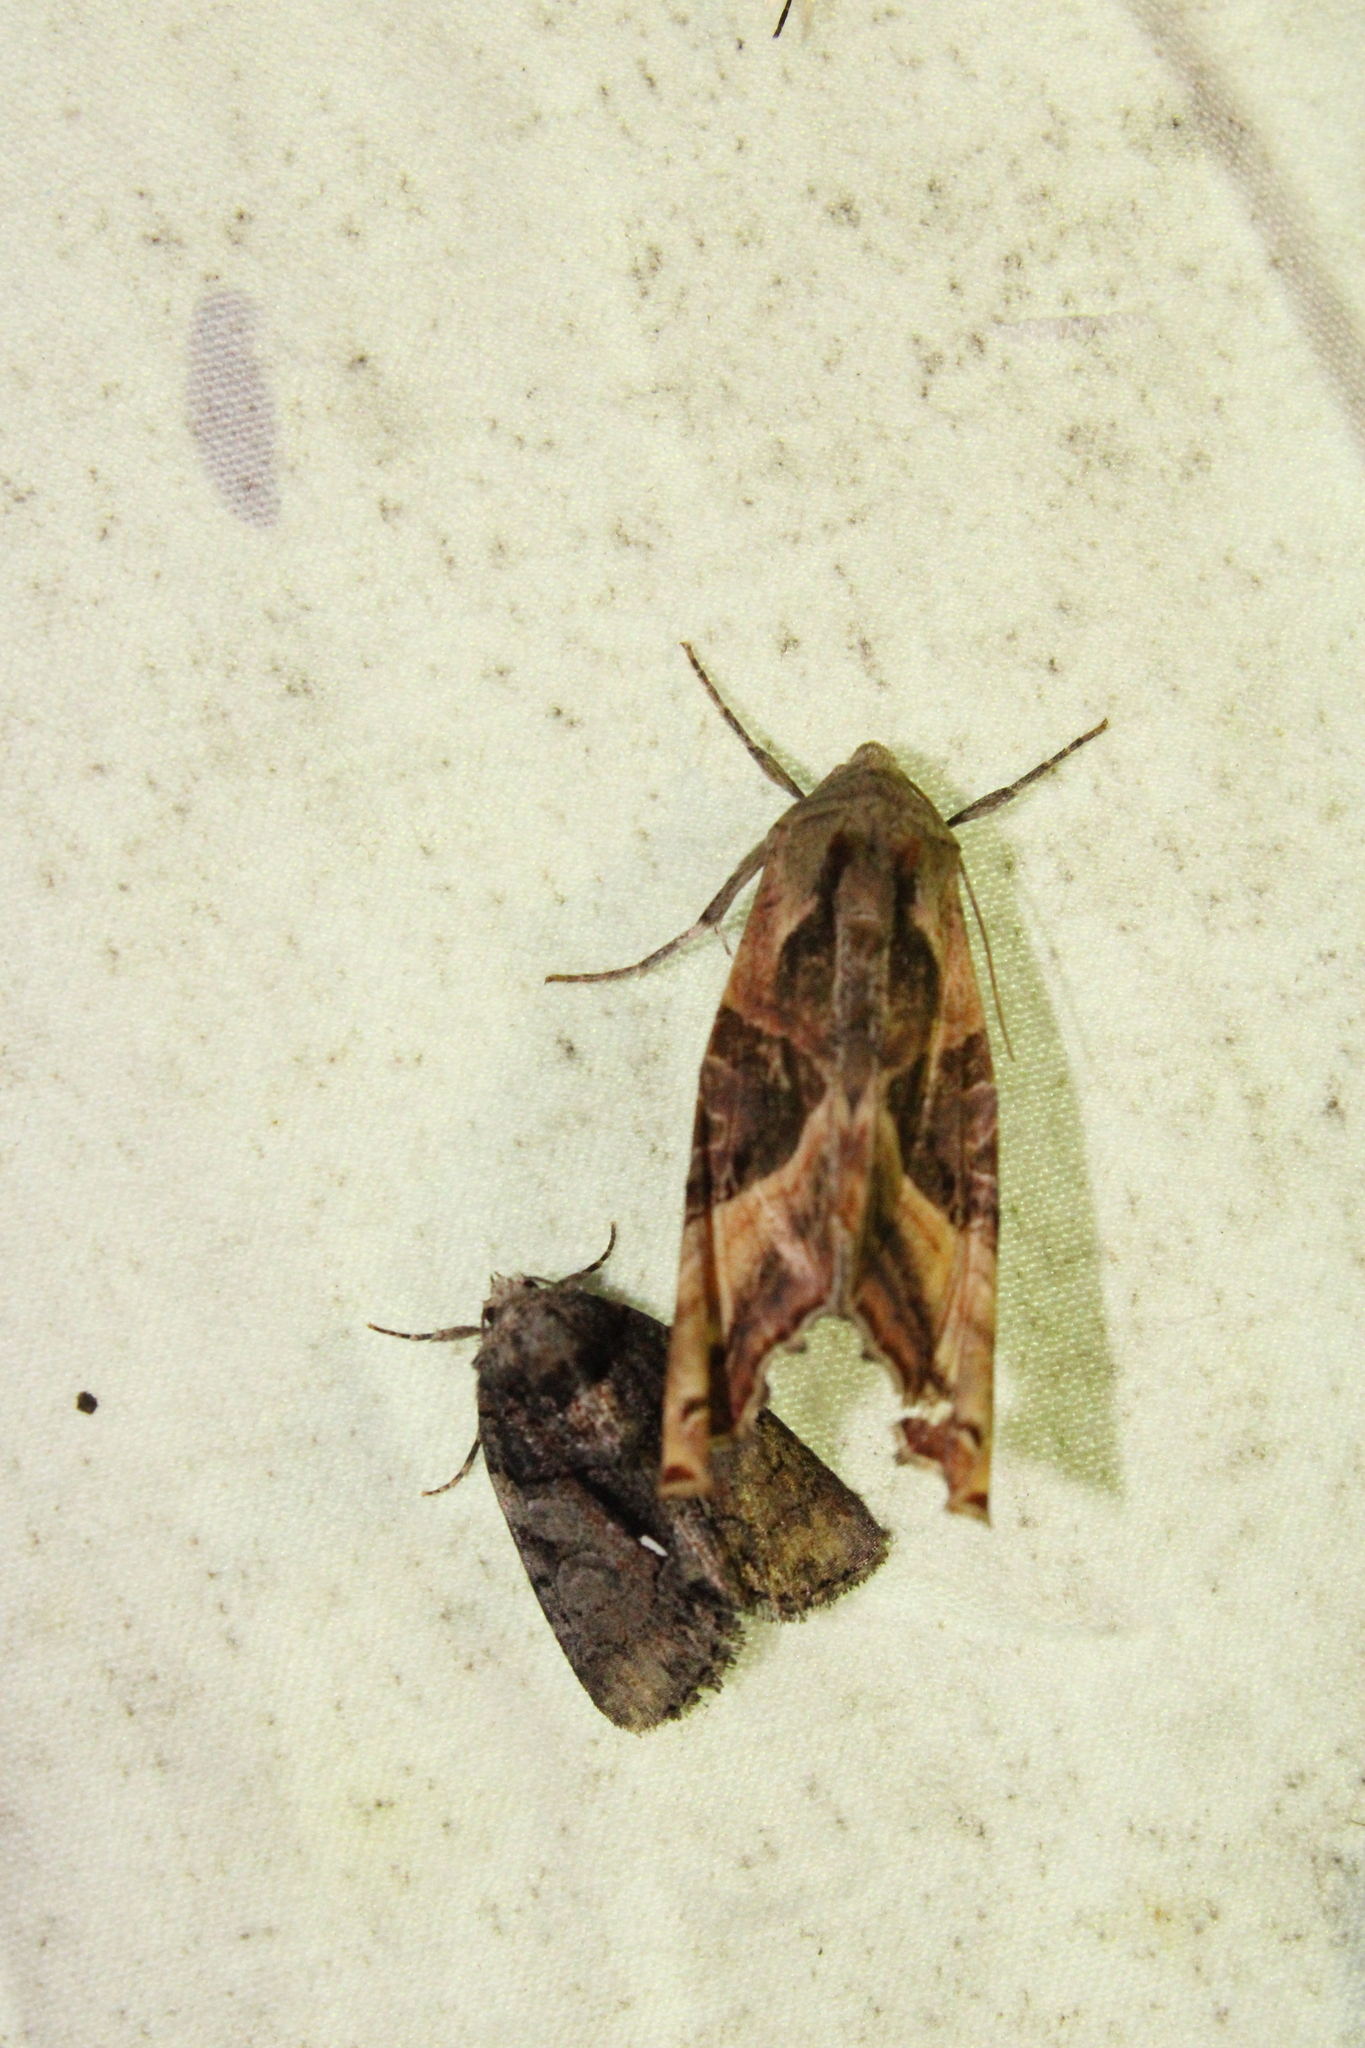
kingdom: Animalia
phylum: Arthropoda
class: Insecta
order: Lepidoptera
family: Noctuidae
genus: Chytonix
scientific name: Chytonix palliatricula
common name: Cloaked marvel
